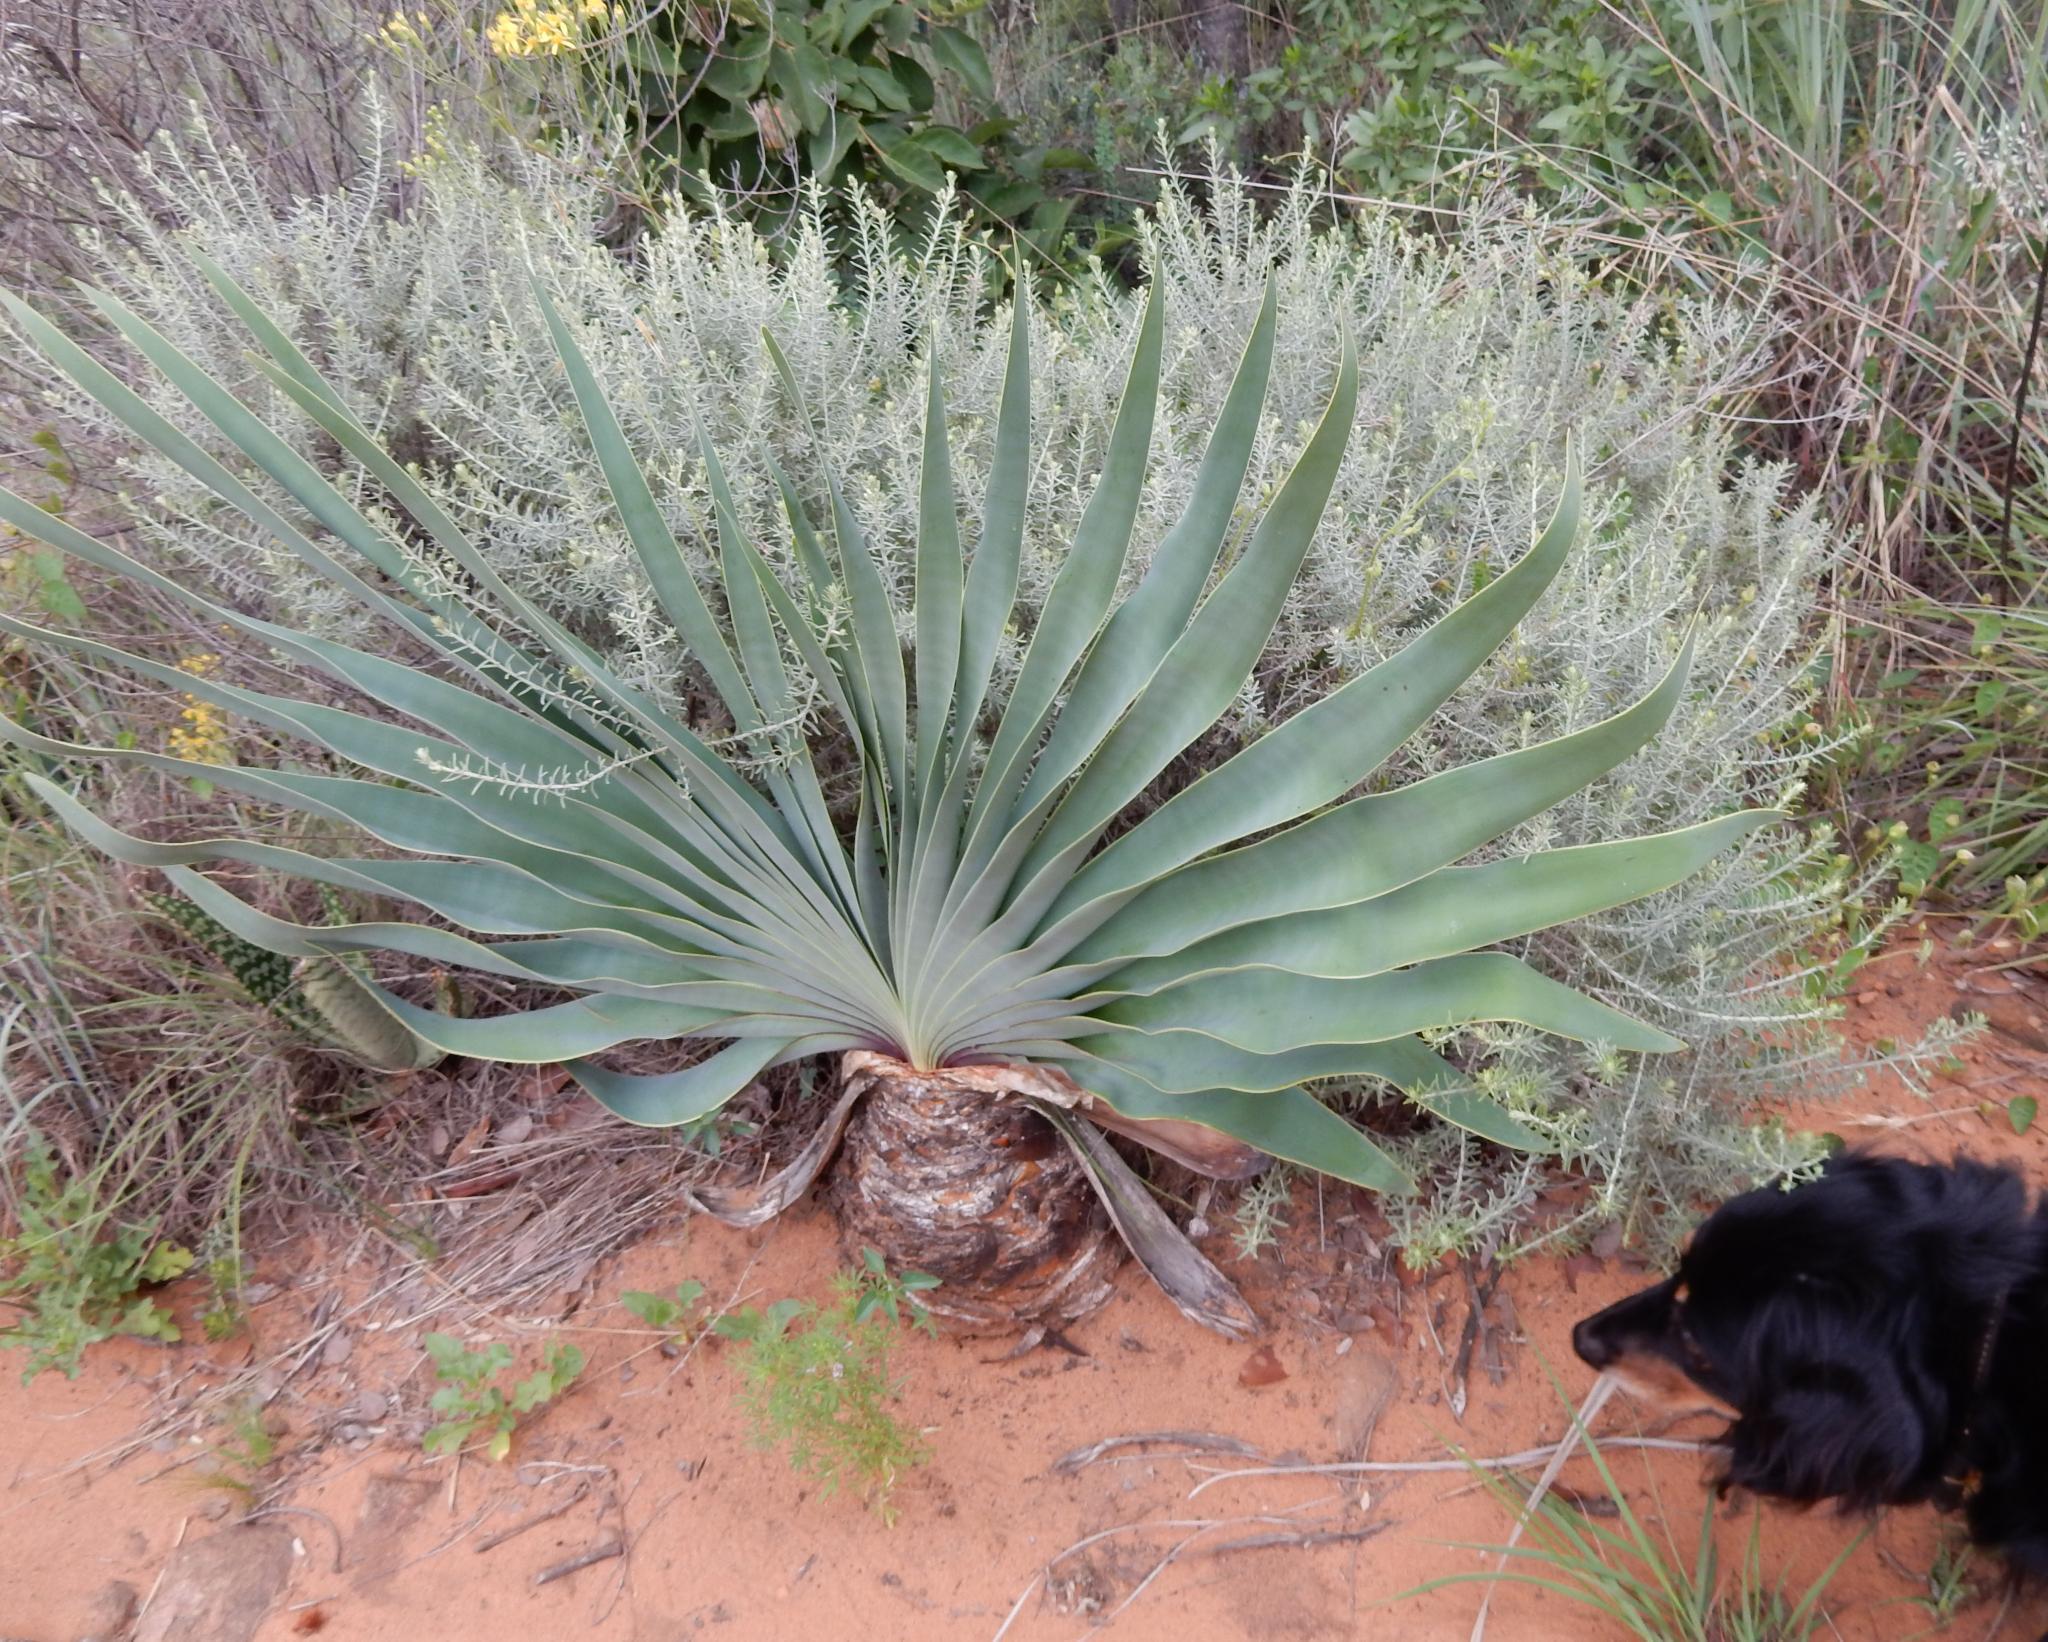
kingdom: Plantae
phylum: Tracheophyta
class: Liliopsida
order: Asparagales
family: Amaryllidaceae
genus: Boophone
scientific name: Boophone disticha
